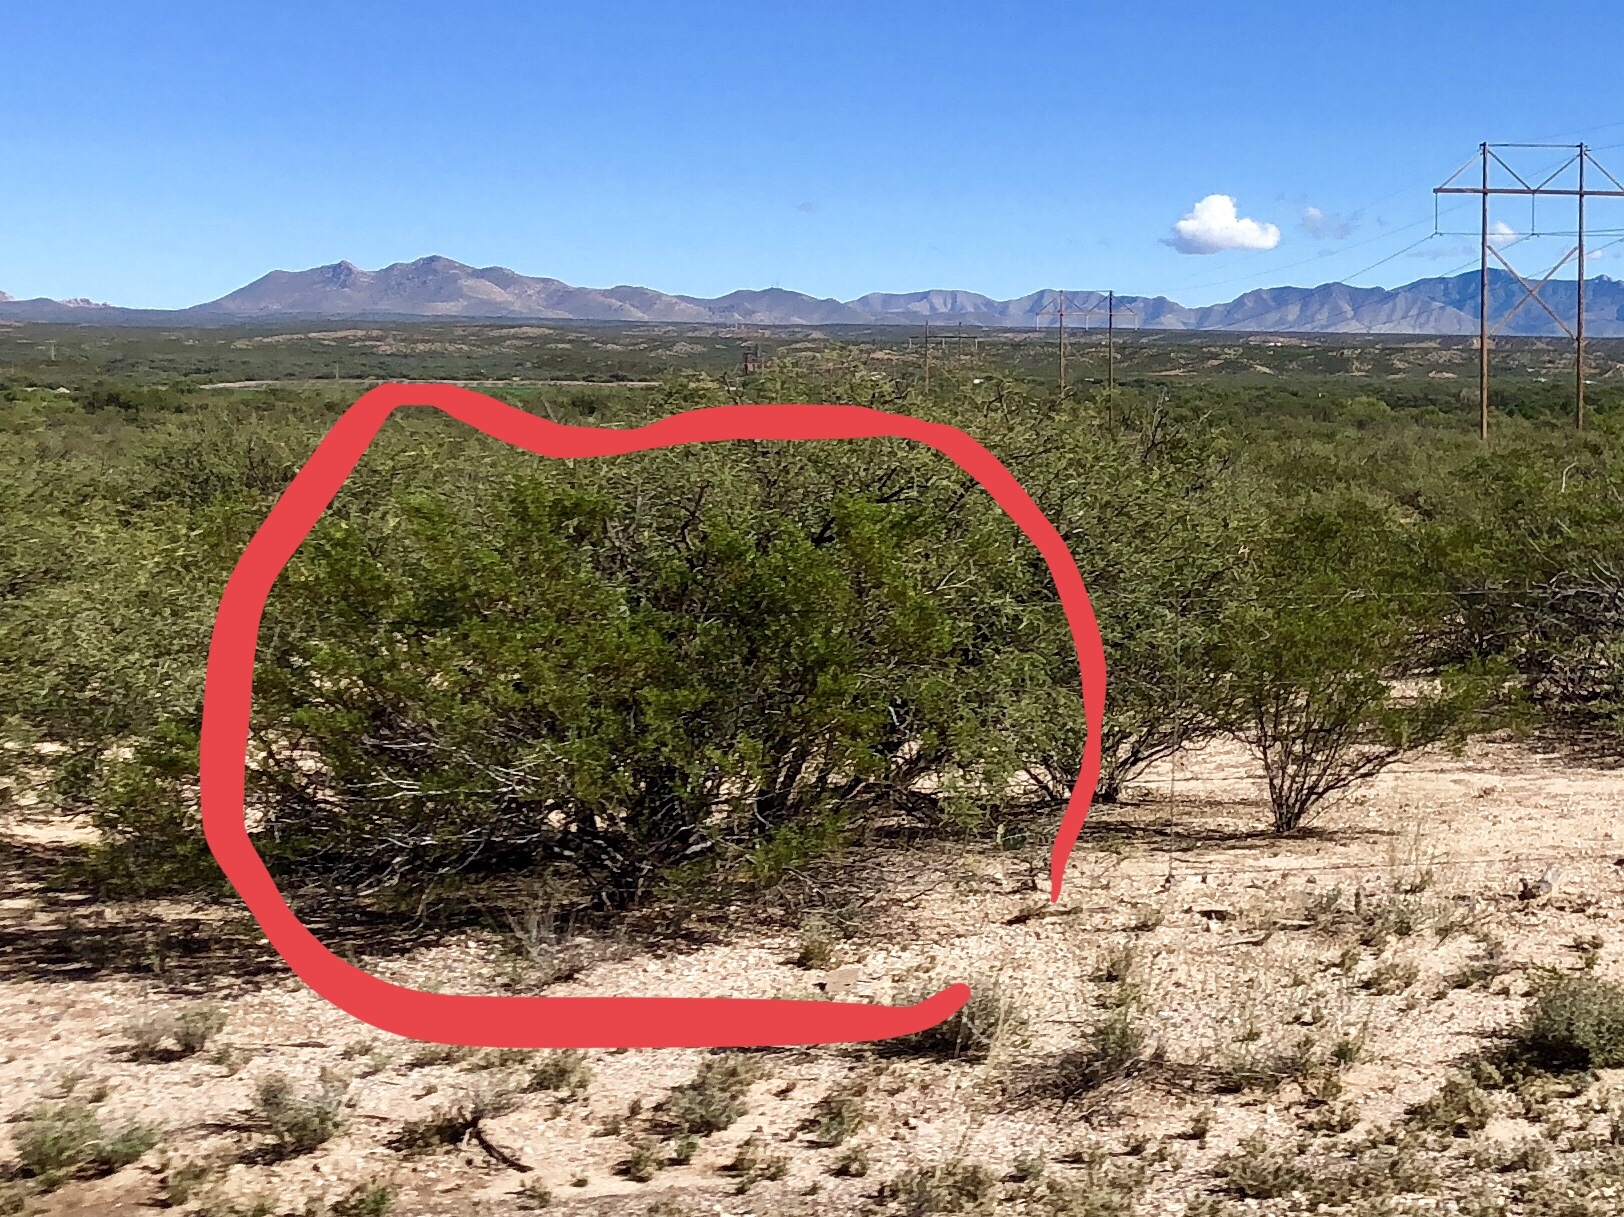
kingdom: Plantae
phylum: Tracheophyta
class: Magnoliopsida
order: Zygophyllales
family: Zygophyllaceae
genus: Larrea
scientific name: Larrea tridentata
